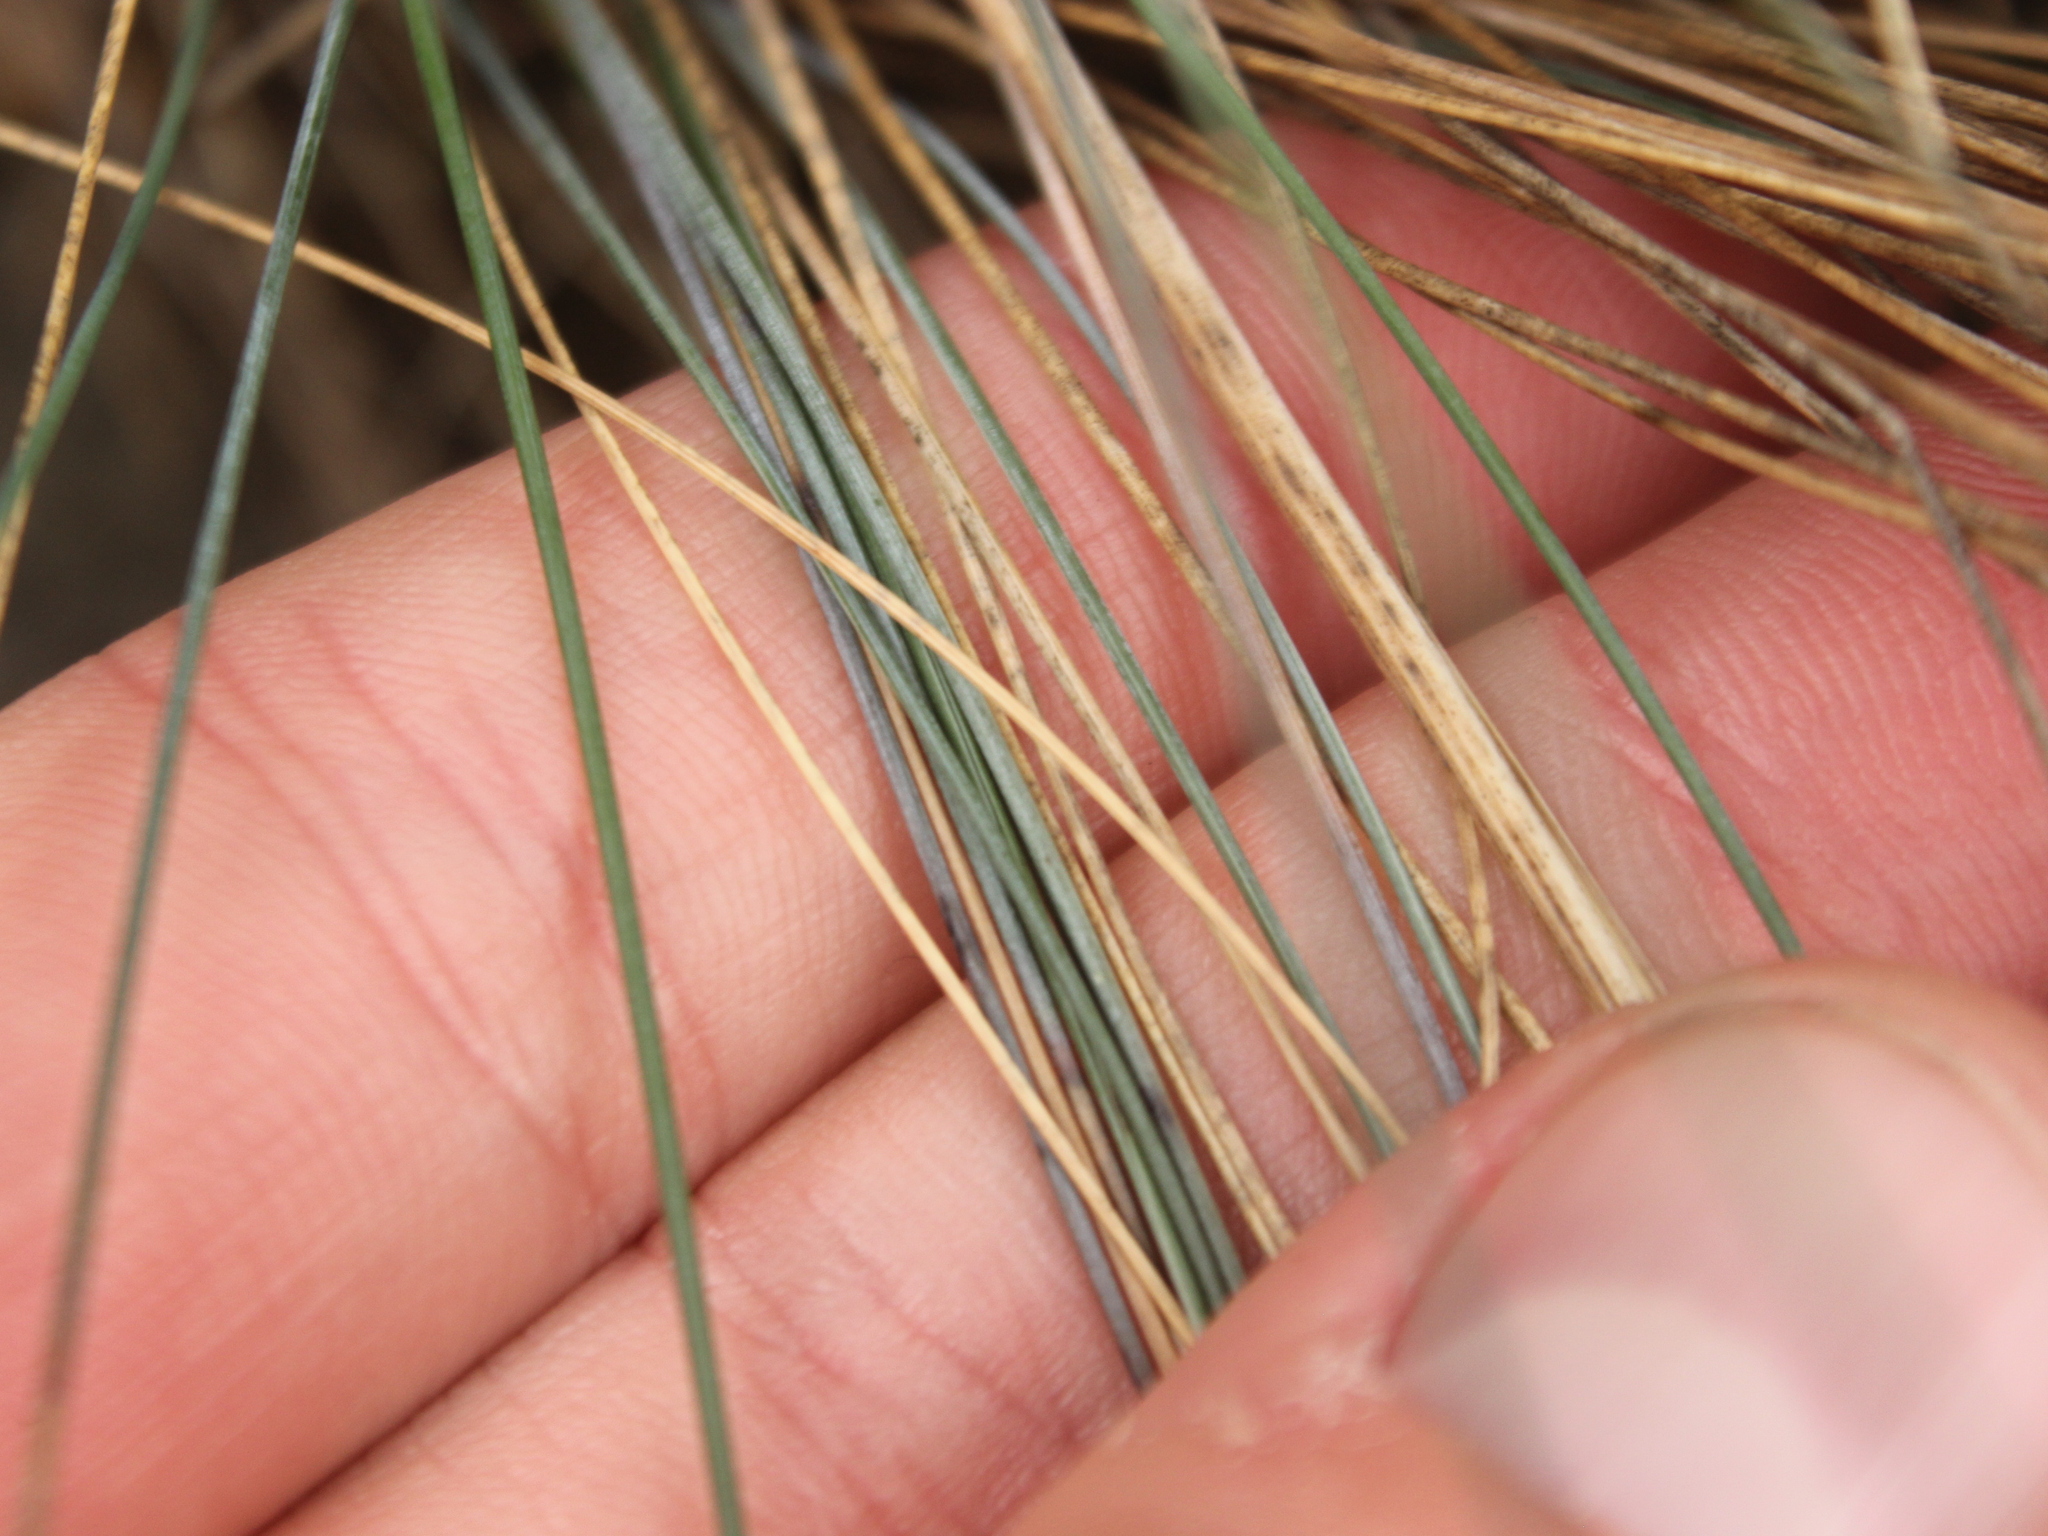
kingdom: Plantae
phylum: Tracheophyta
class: Liliopsida
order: Poales
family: Poaceae
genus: Festuca
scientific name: Festuca actae
